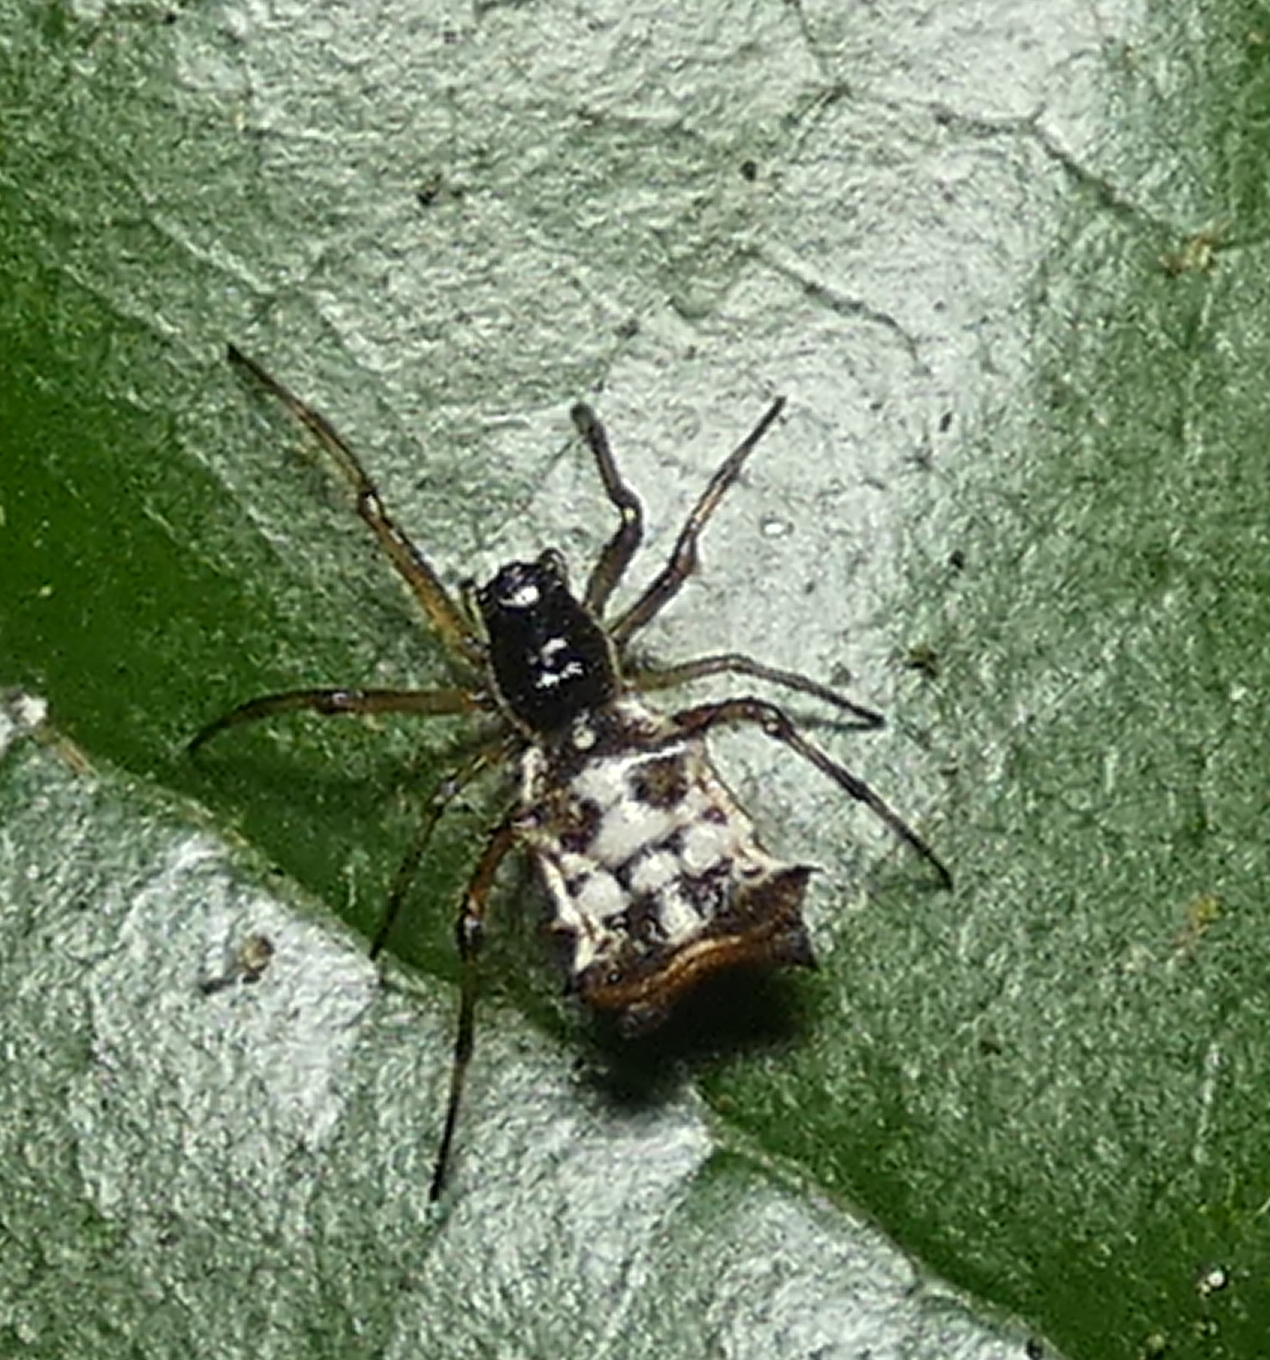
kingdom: Animalia
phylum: Arthropoda
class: Arachnida
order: Araneae
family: Araneidae
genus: Micrathena
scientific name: Micrathena picta
